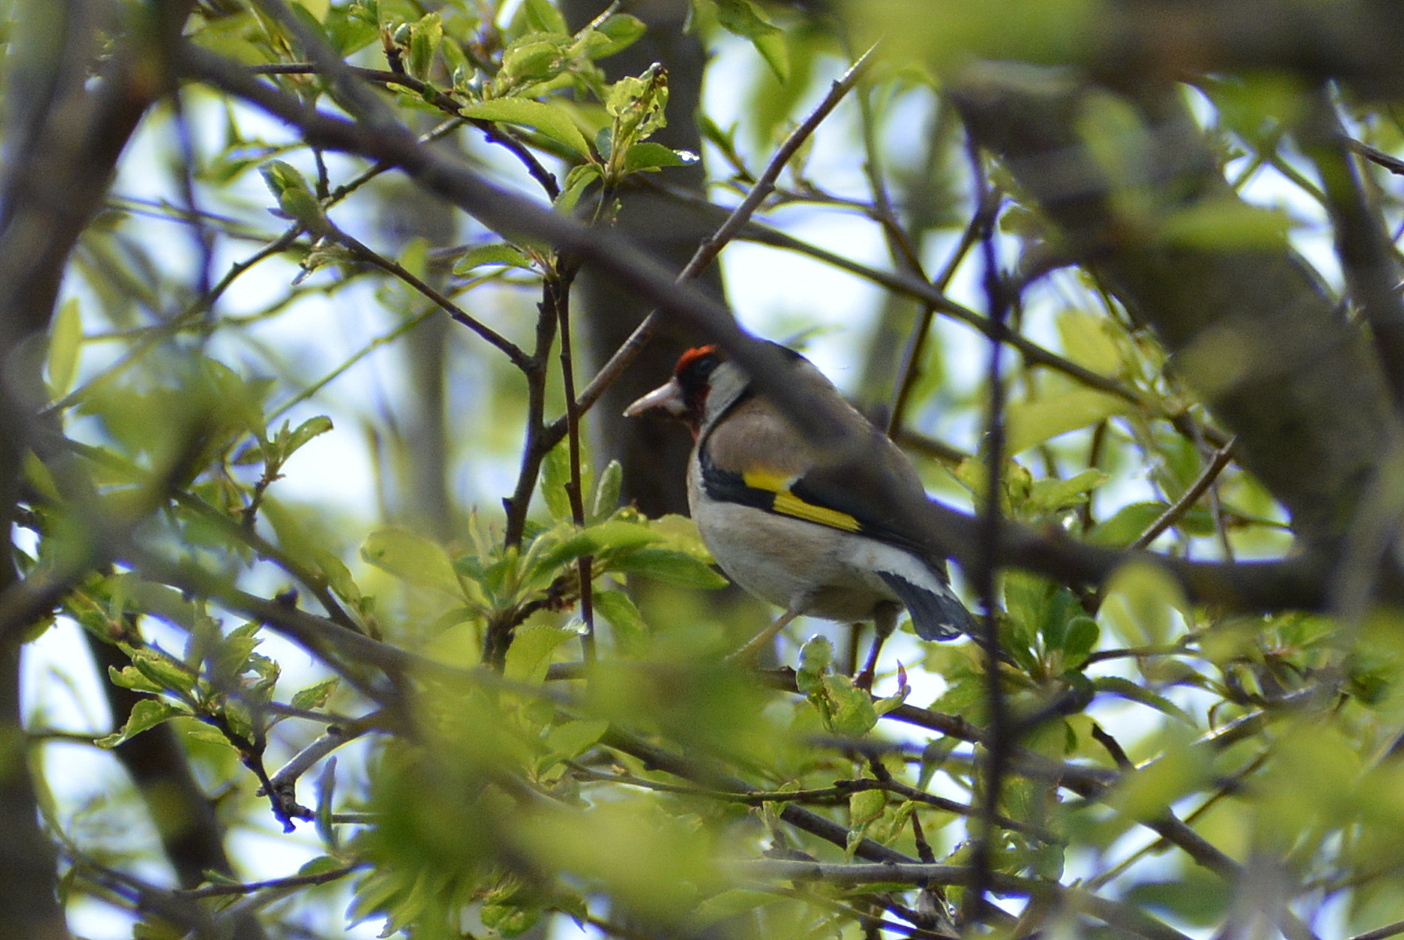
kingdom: Animalia
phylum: Chordata
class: Aves
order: Passeriformes
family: Fringillidae
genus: Carduelis
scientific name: Carduelis carduelis
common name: European goldfinch
